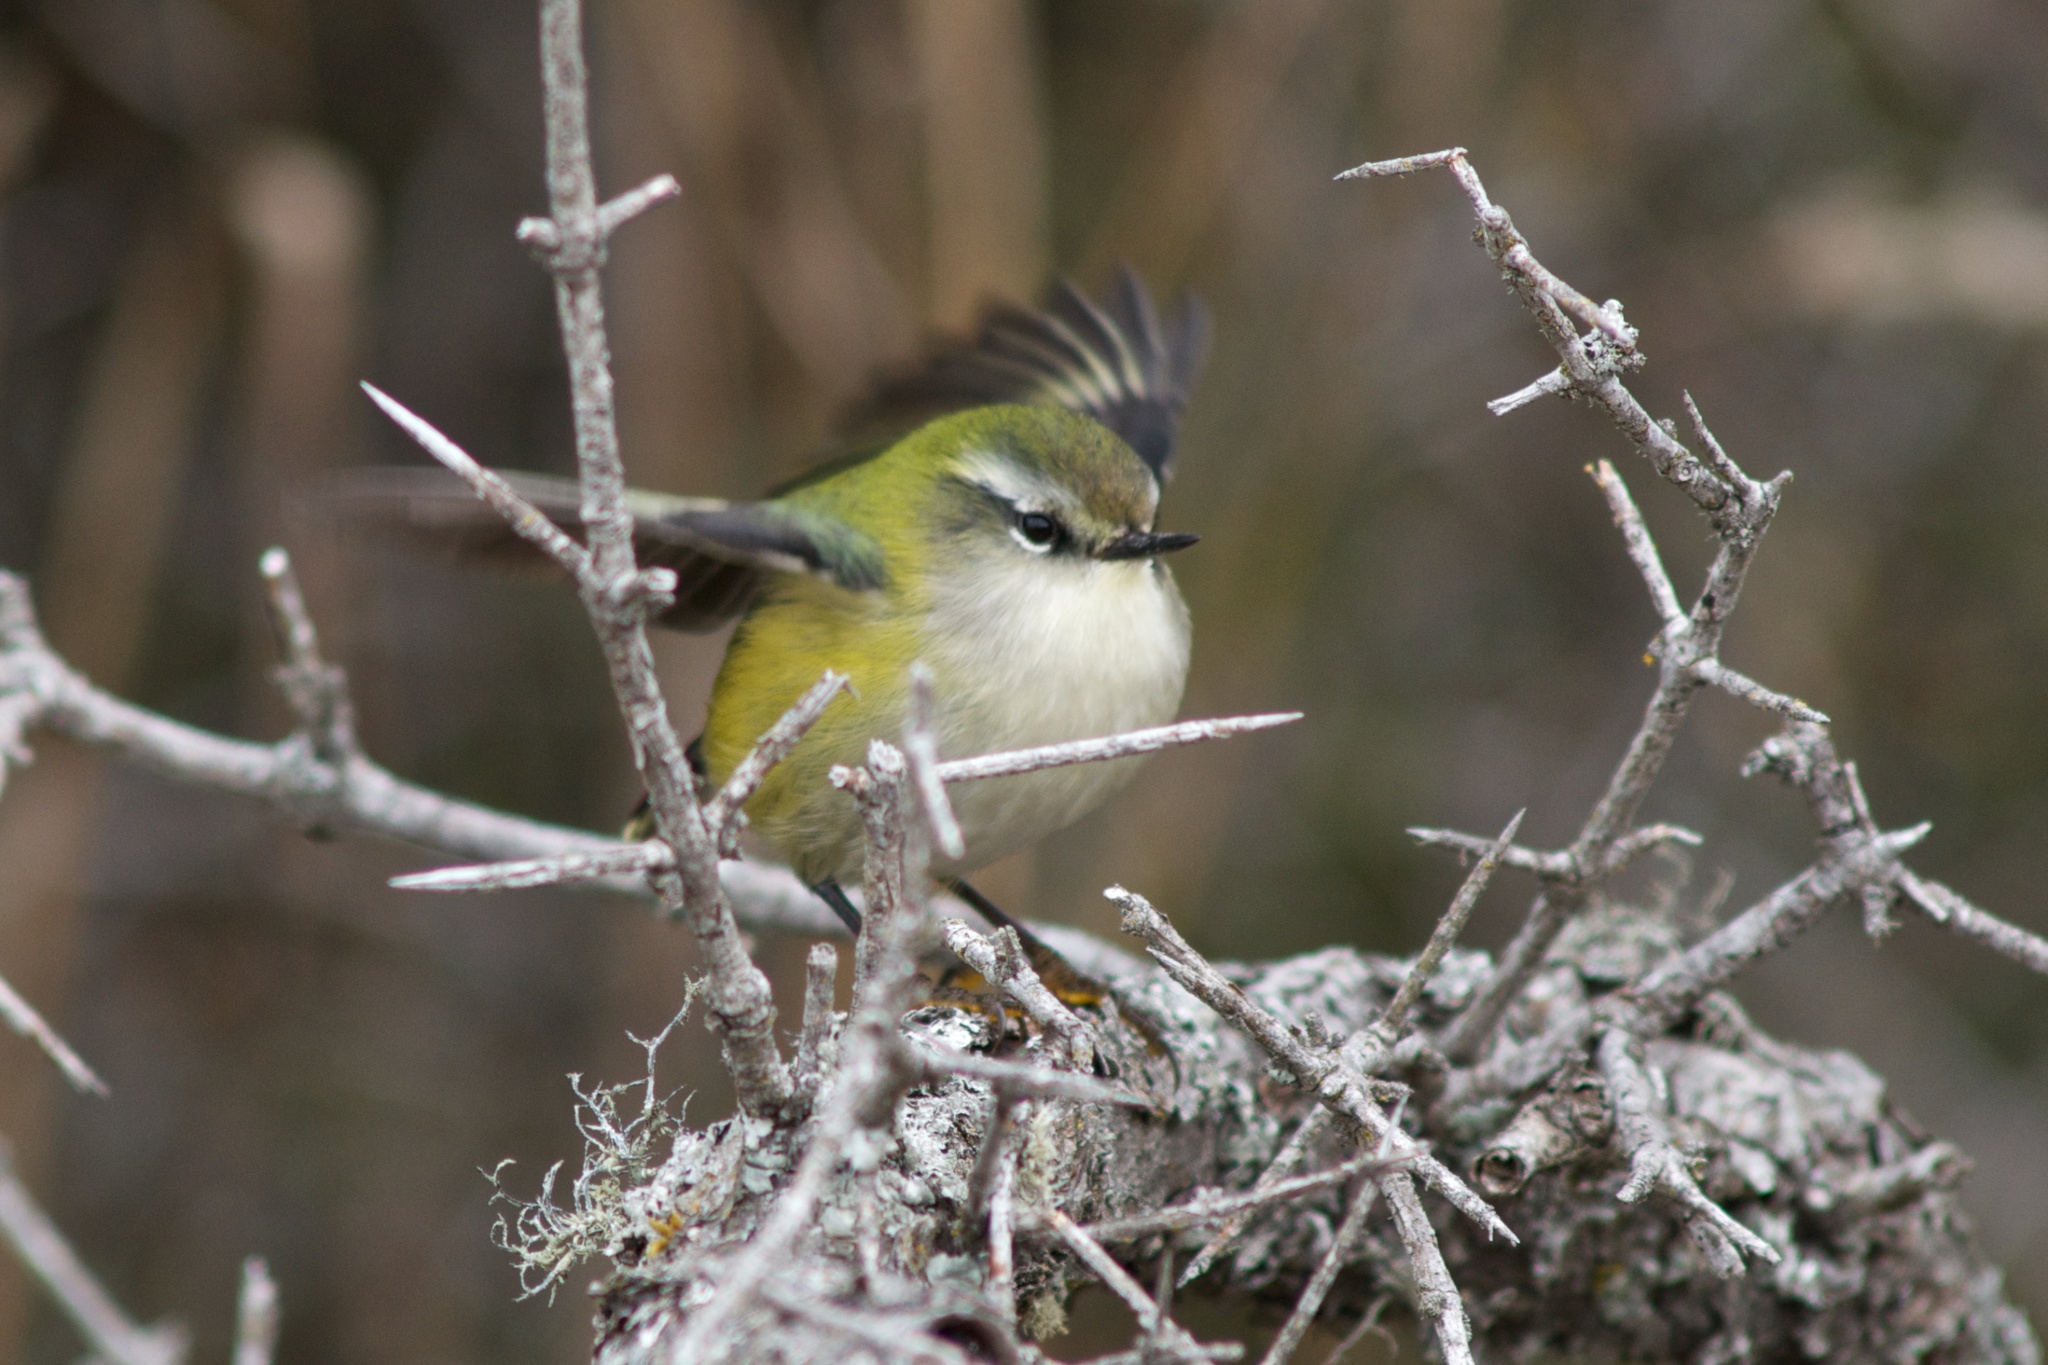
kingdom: Animalia
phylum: Chordata
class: Aves
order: Passeriformes
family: Acanthisittidae
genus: Acanthisitta
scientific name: Acanthisitta chloris
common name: Rifleman
